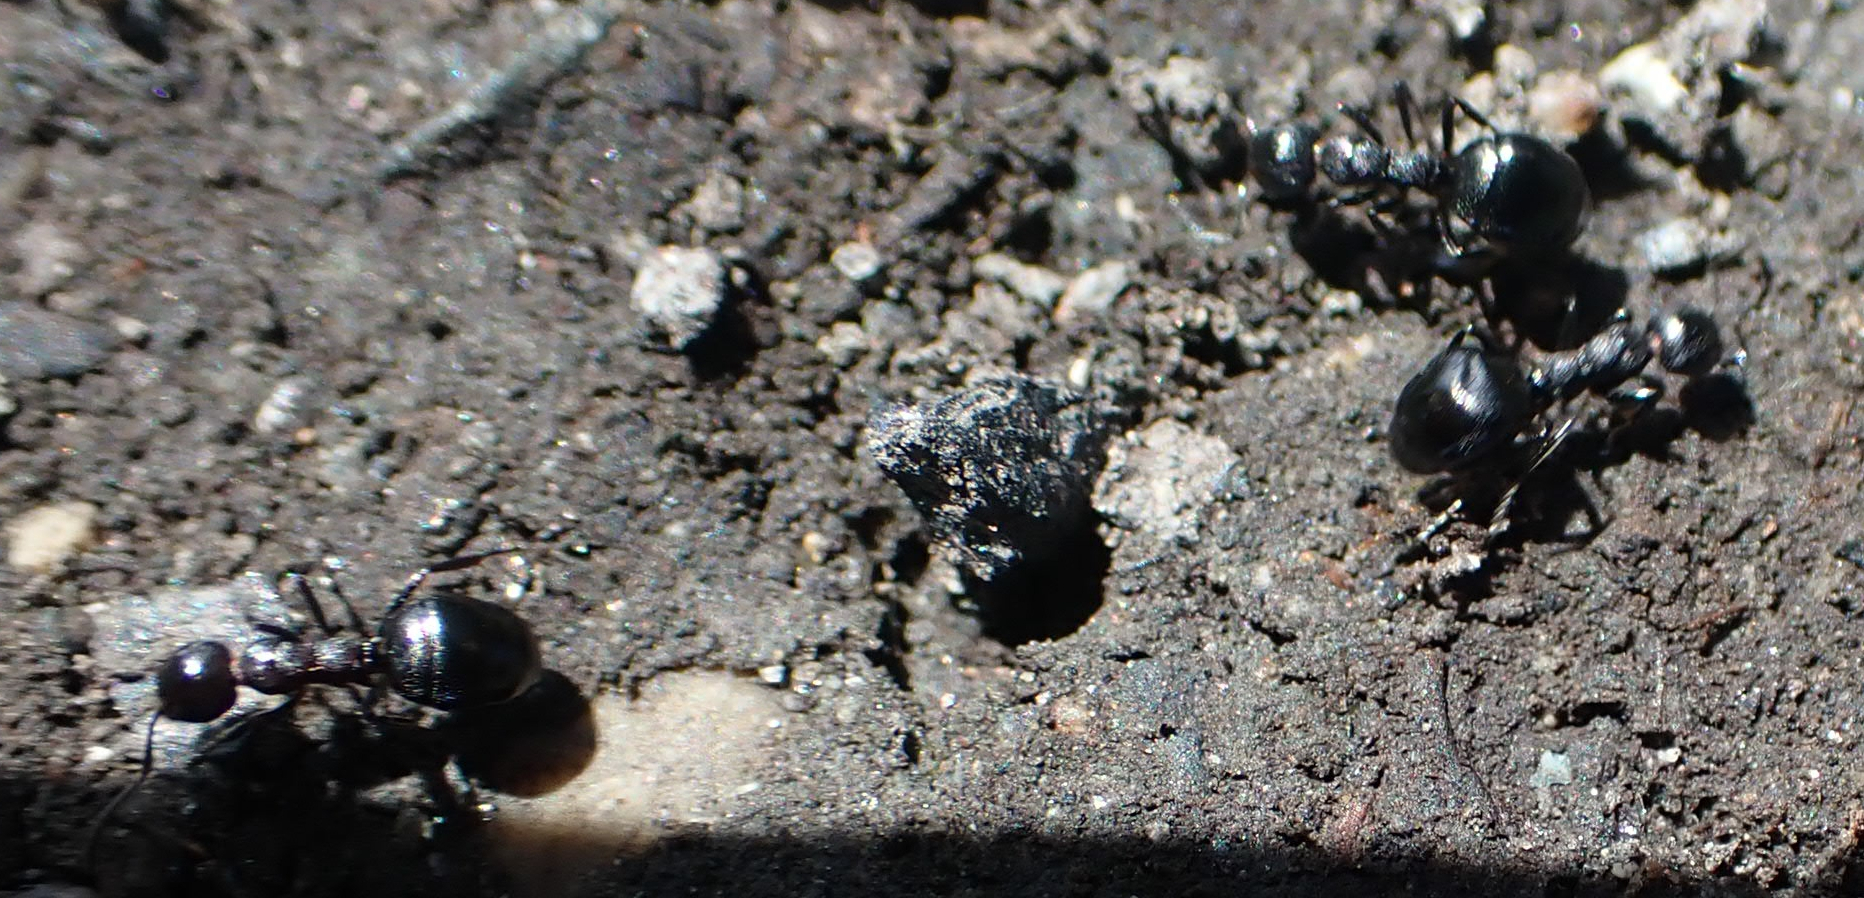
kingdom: Animalia
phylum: Arthropoda
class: Insecta
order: Hymenoptera
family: Formicidae
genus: Dolichoderus
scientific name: Dolichoderus taschenbergi
